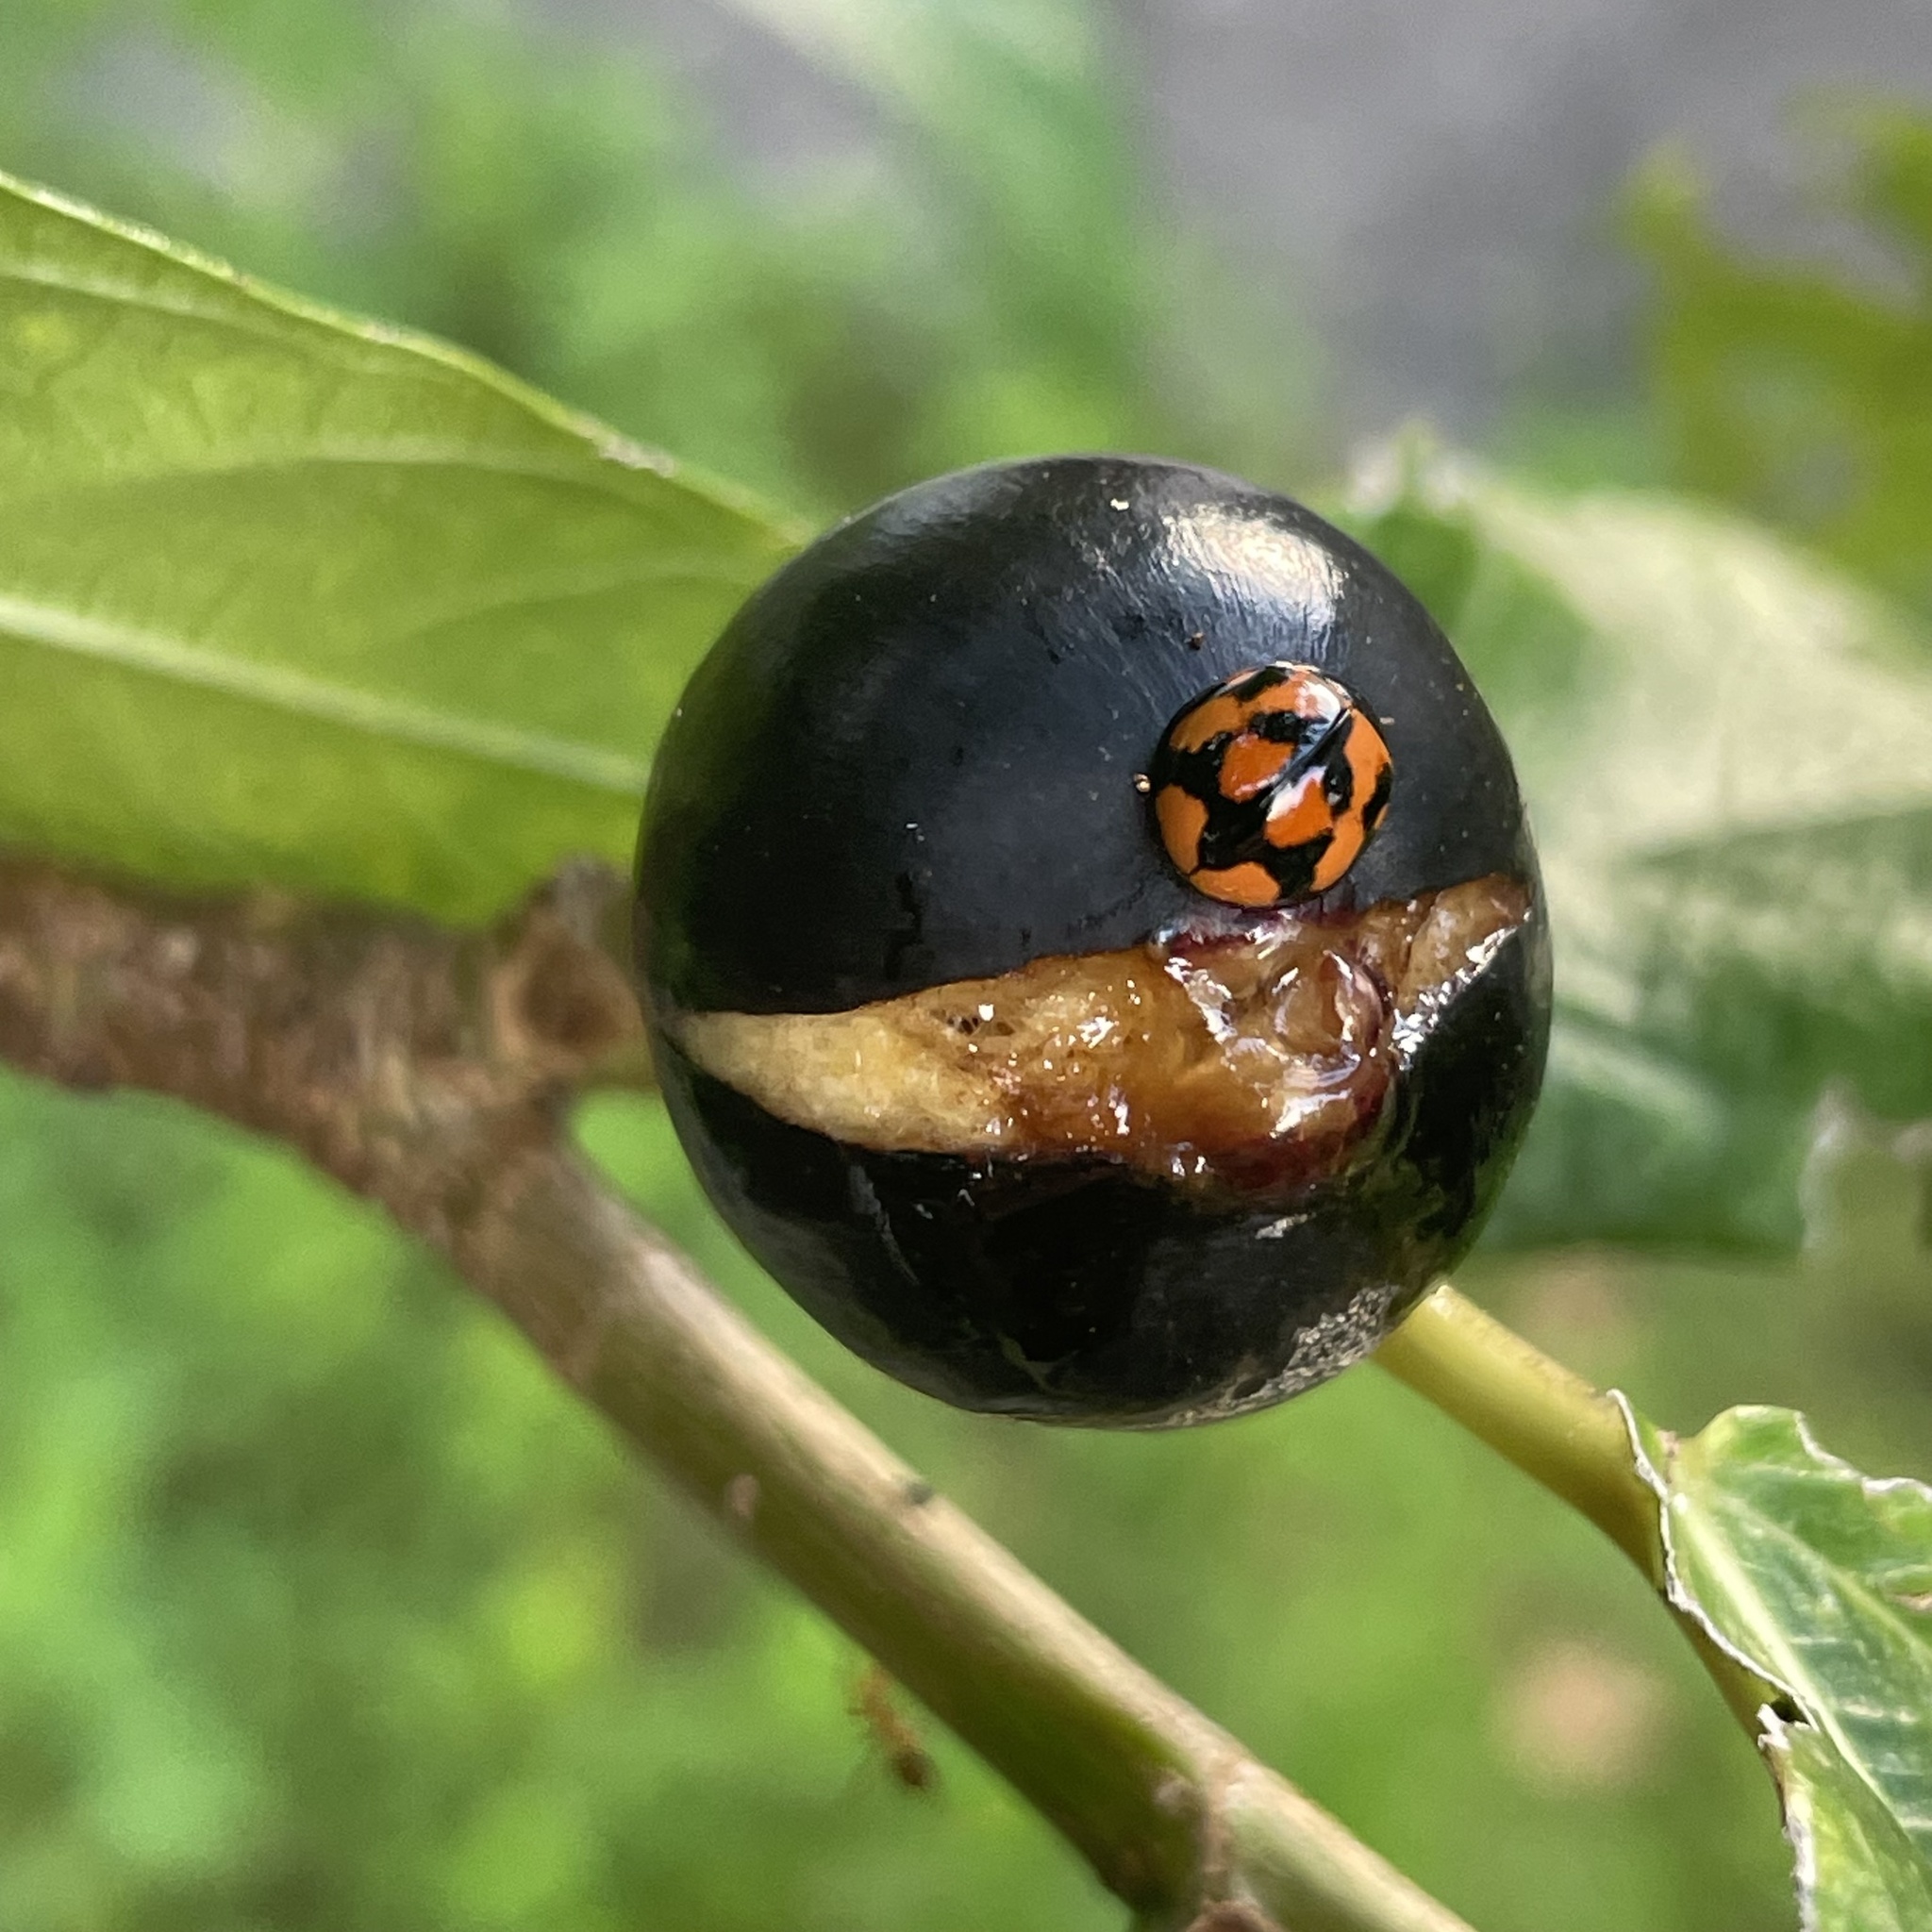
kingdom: Animalia
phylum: Arthropoda
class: Insecta
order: Coleoptera
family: Coccinellidae
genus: Coelophora
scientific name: Coelophora inaequalis
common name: Common australian lady beetle
